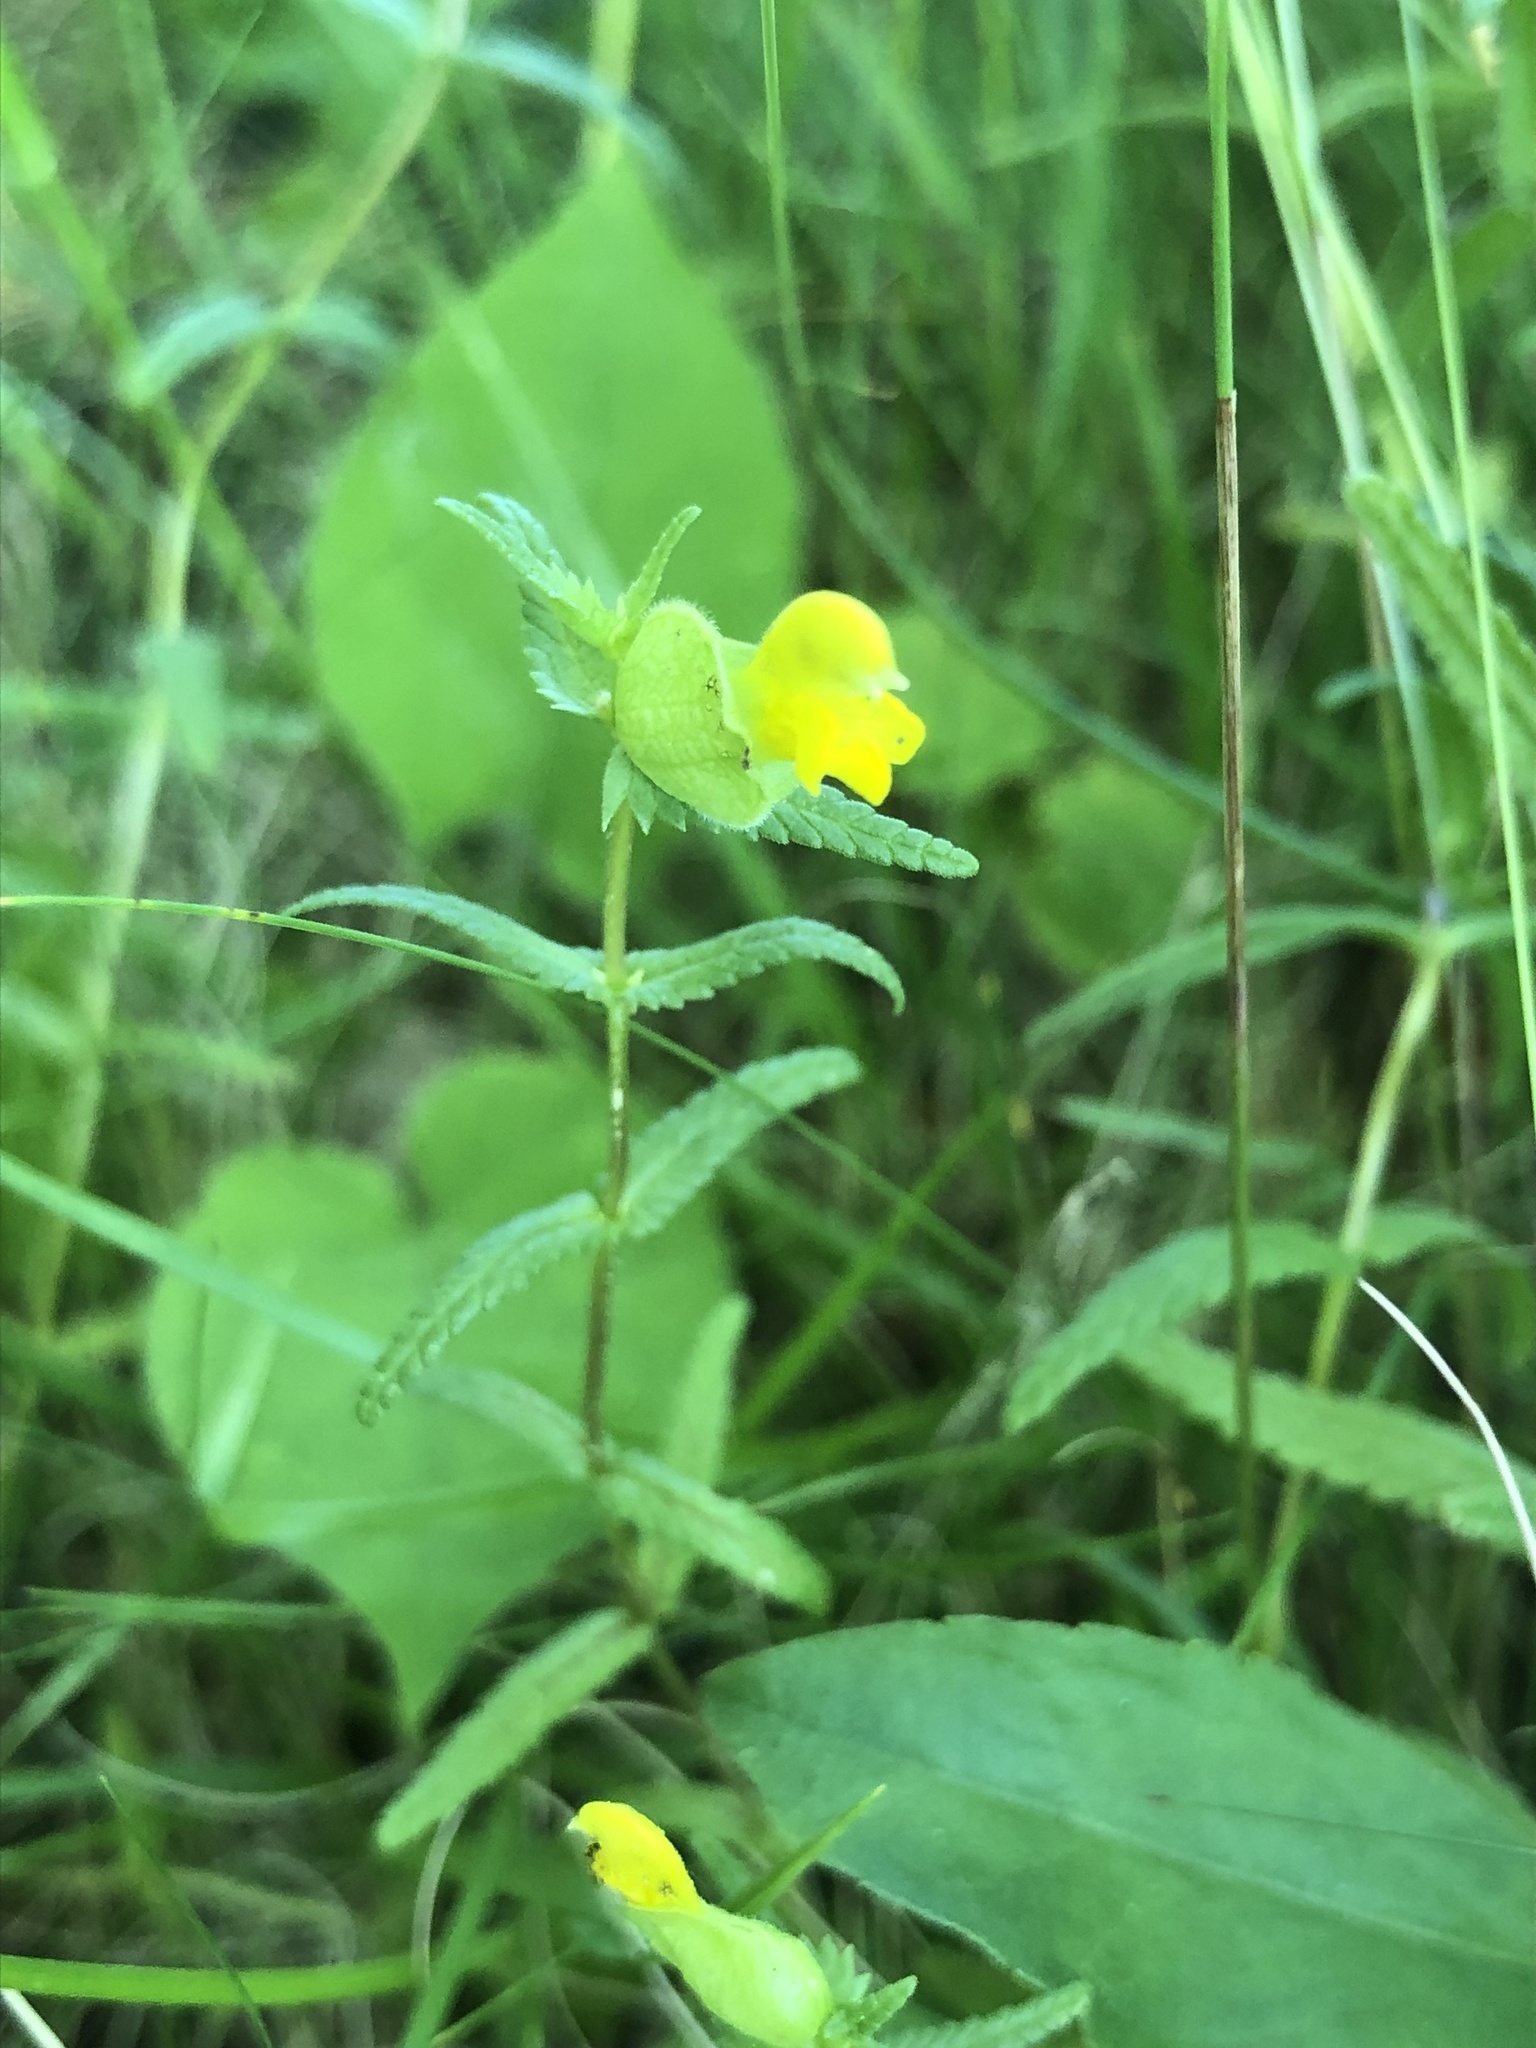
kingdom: Plantae
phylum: Tracheophyta
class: Magnoliopsida
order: Lamiales
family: Orobanchaceae
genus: Rhinanthus
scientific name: Rhinanthus minor
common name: Yellow-rattle
